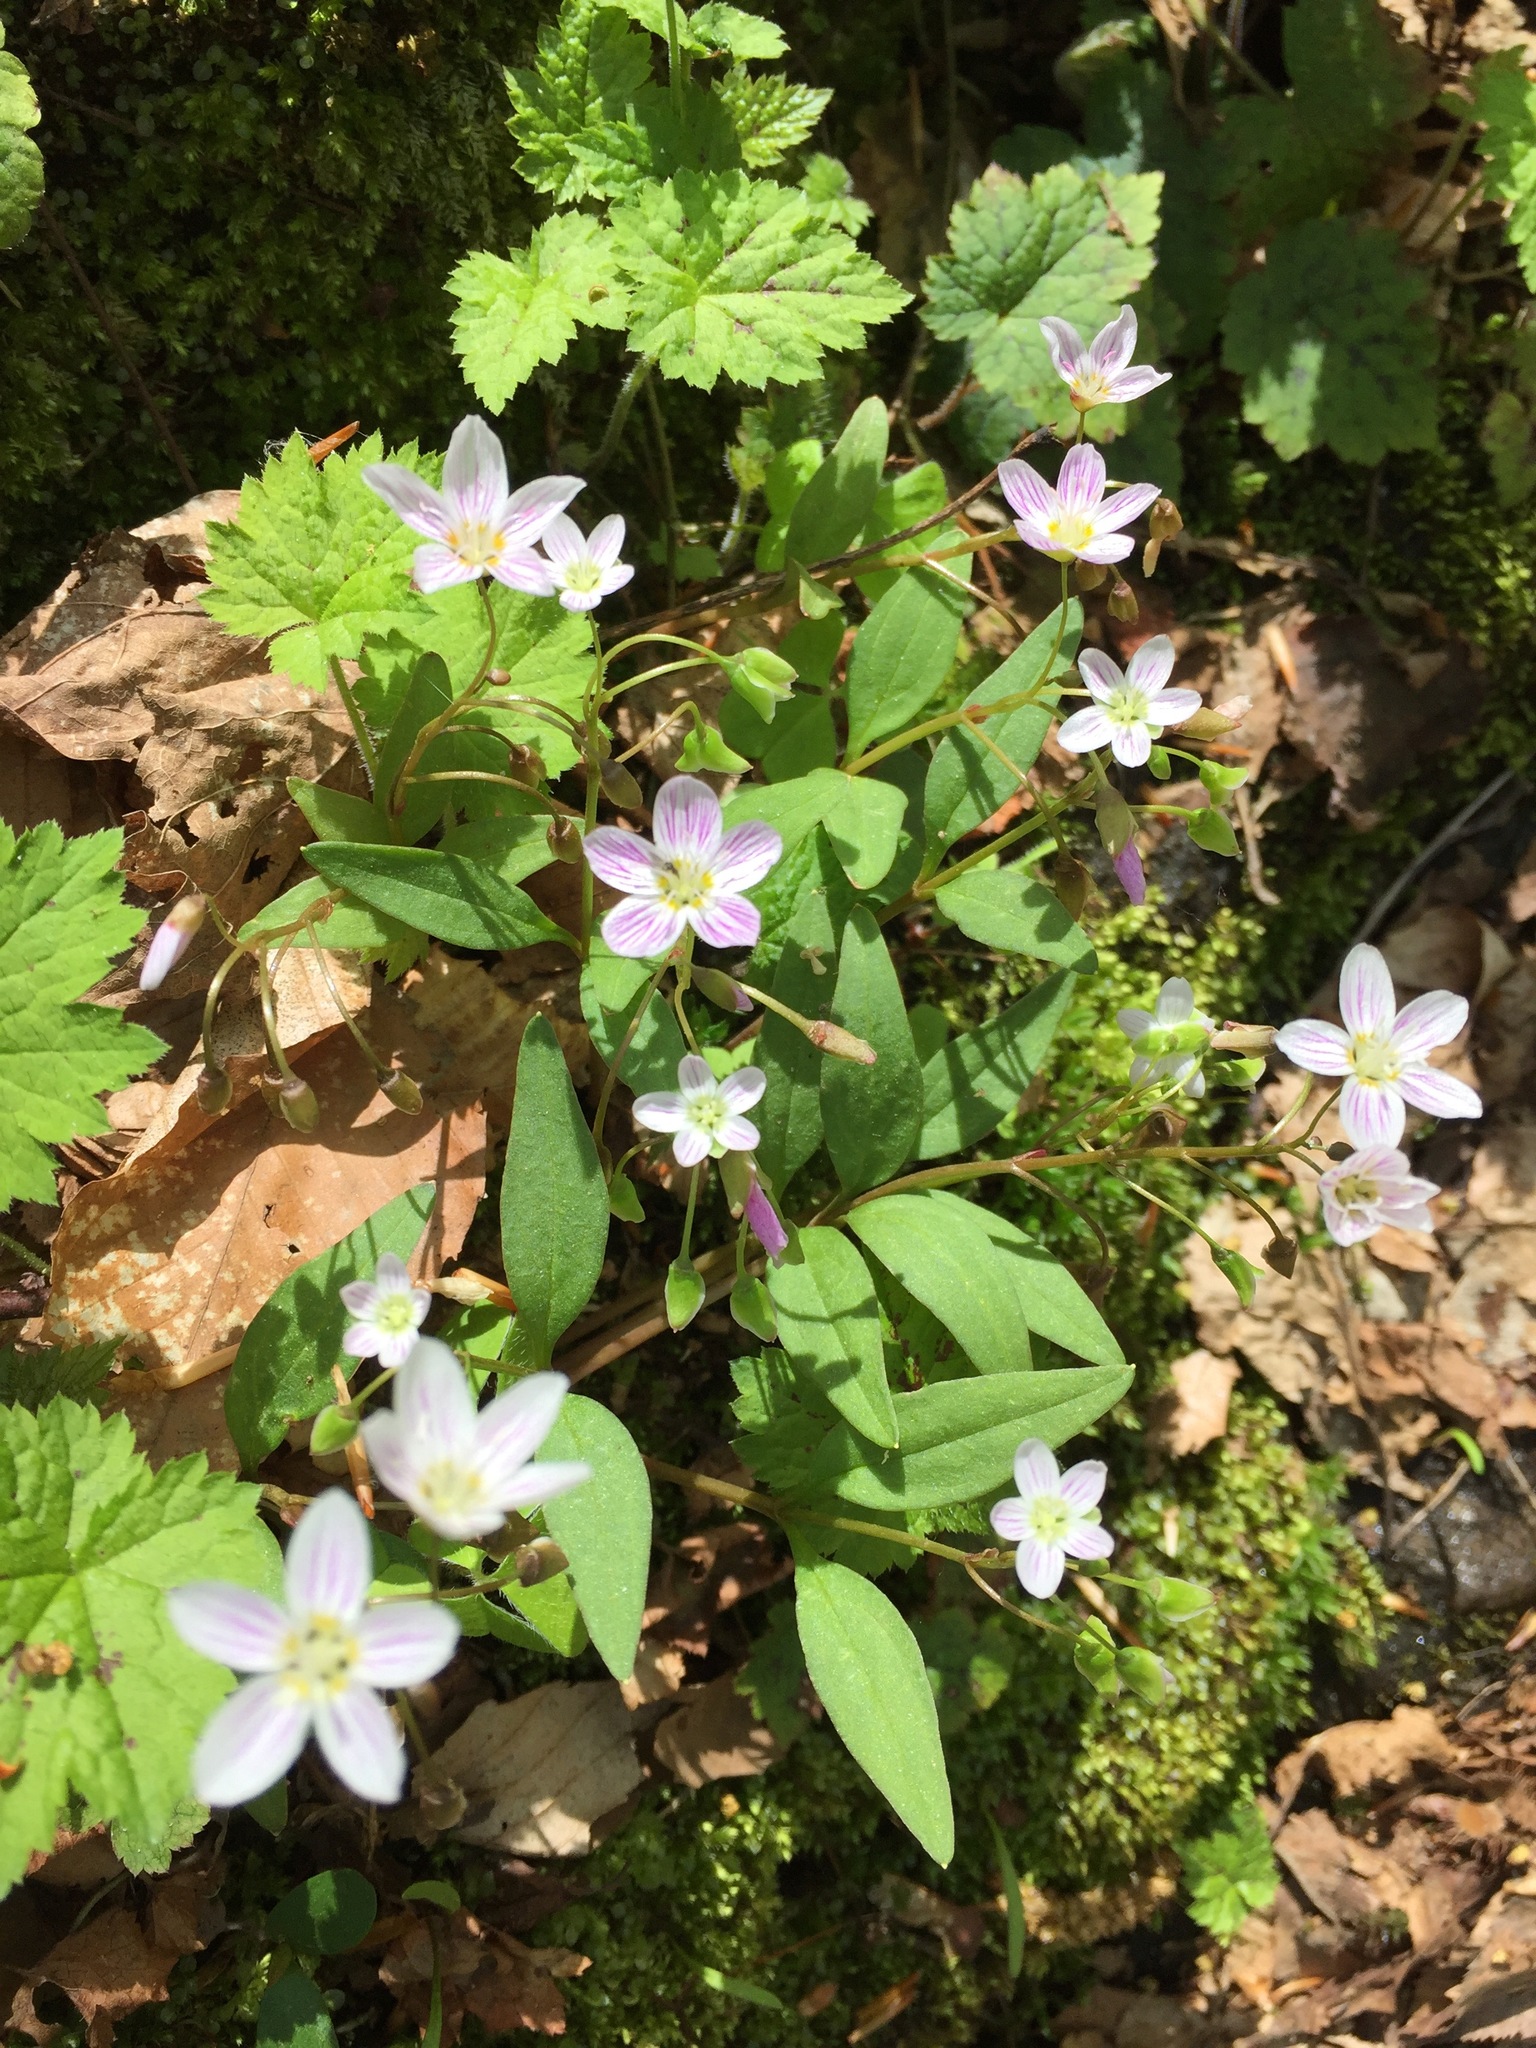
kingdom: Plantae
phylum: Tracheophyta
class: Magnoliopsida
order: Caryophyllales
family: Montiaceae
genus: Claytonia
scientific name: Claytonia caroliniana
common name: Carolina spring beauty
